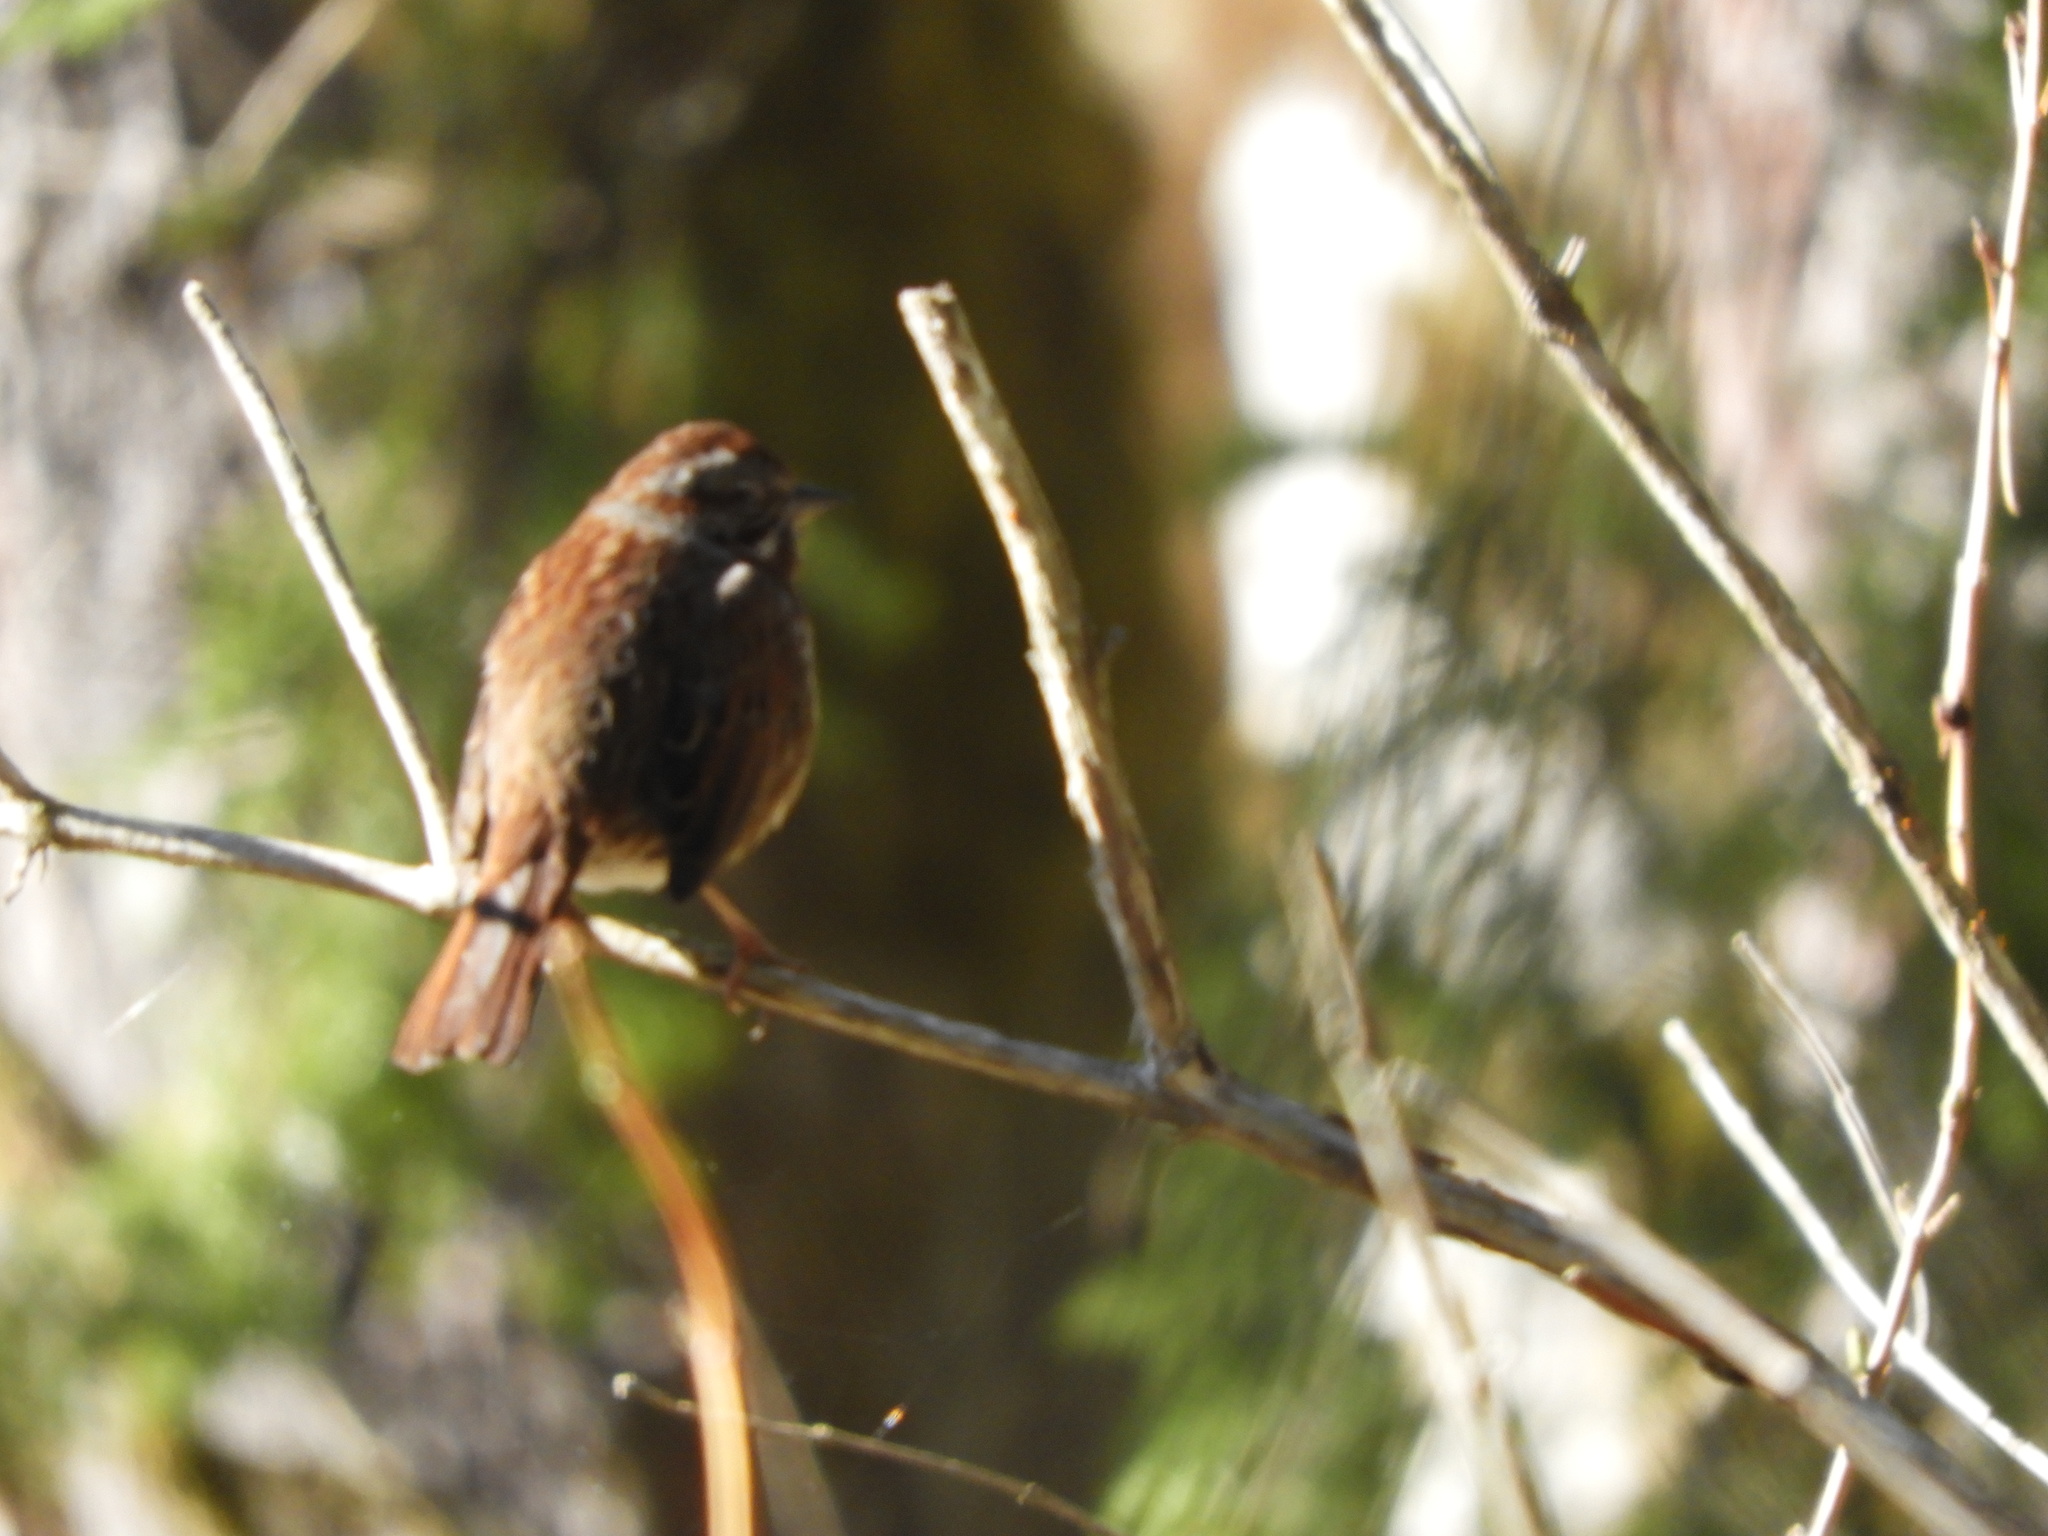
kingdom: Animalia
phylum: Chordata
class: Aves
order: Passeriformes
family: Passerellidae
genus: Melospiza
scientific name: Melospiza melodia
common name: Song sparrow
